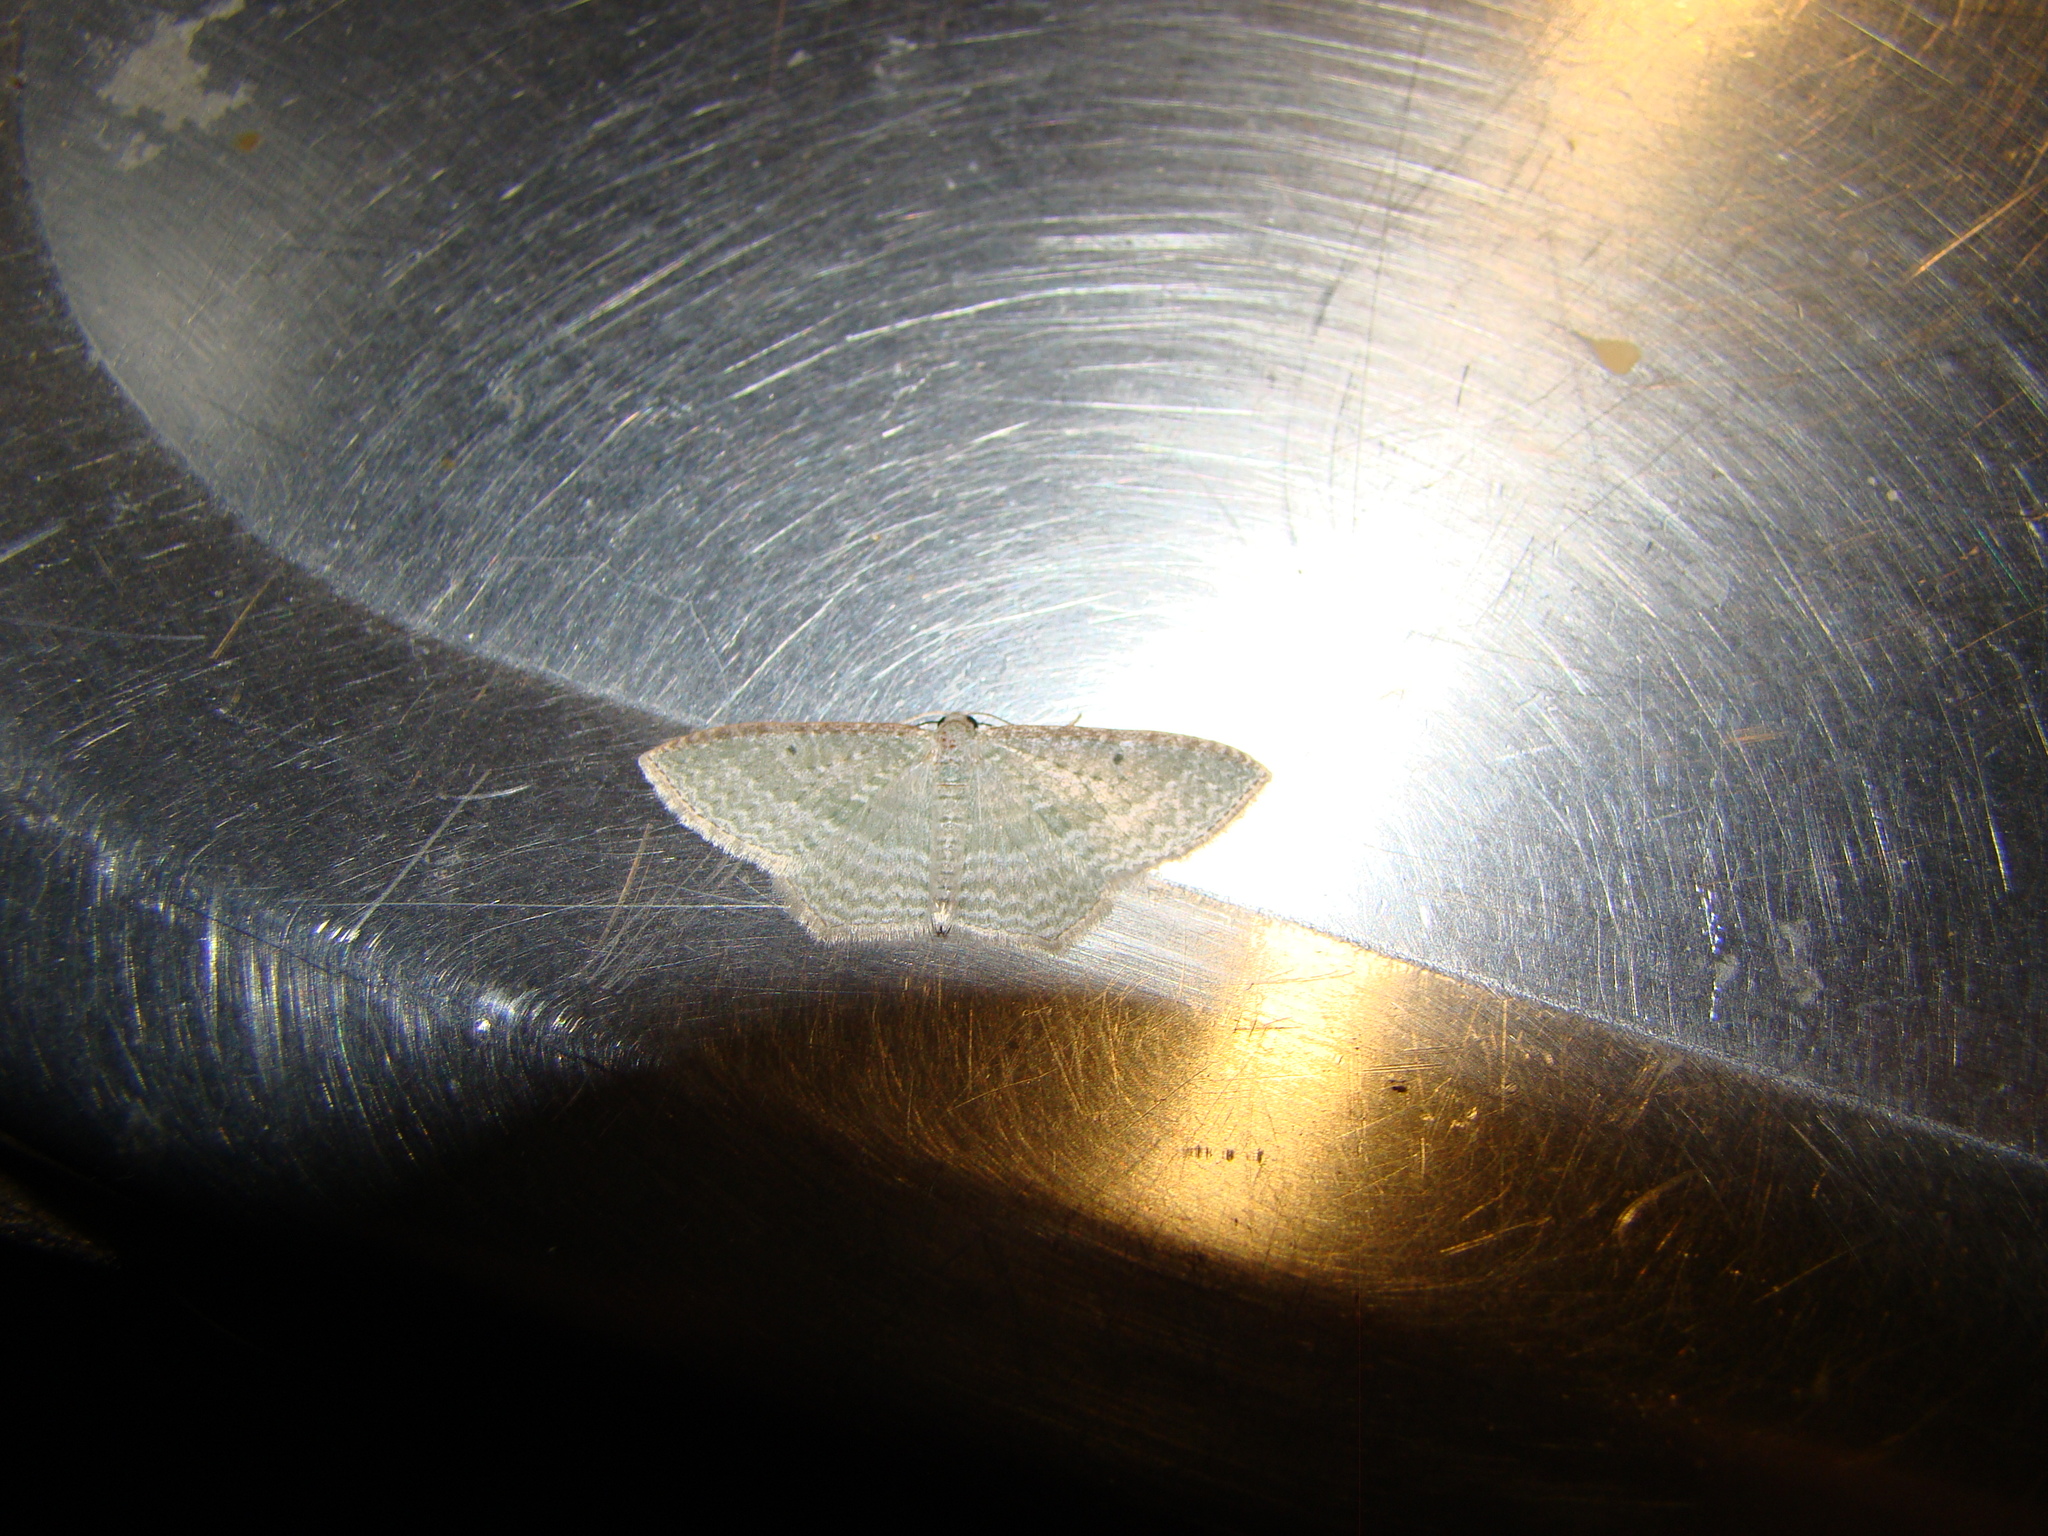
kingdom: Animalia
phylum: Arthropoda
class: Insecta
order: Lepidoptera
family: Geometridae
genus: Poecilasthena
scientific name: Poecilasthena pulchraria
